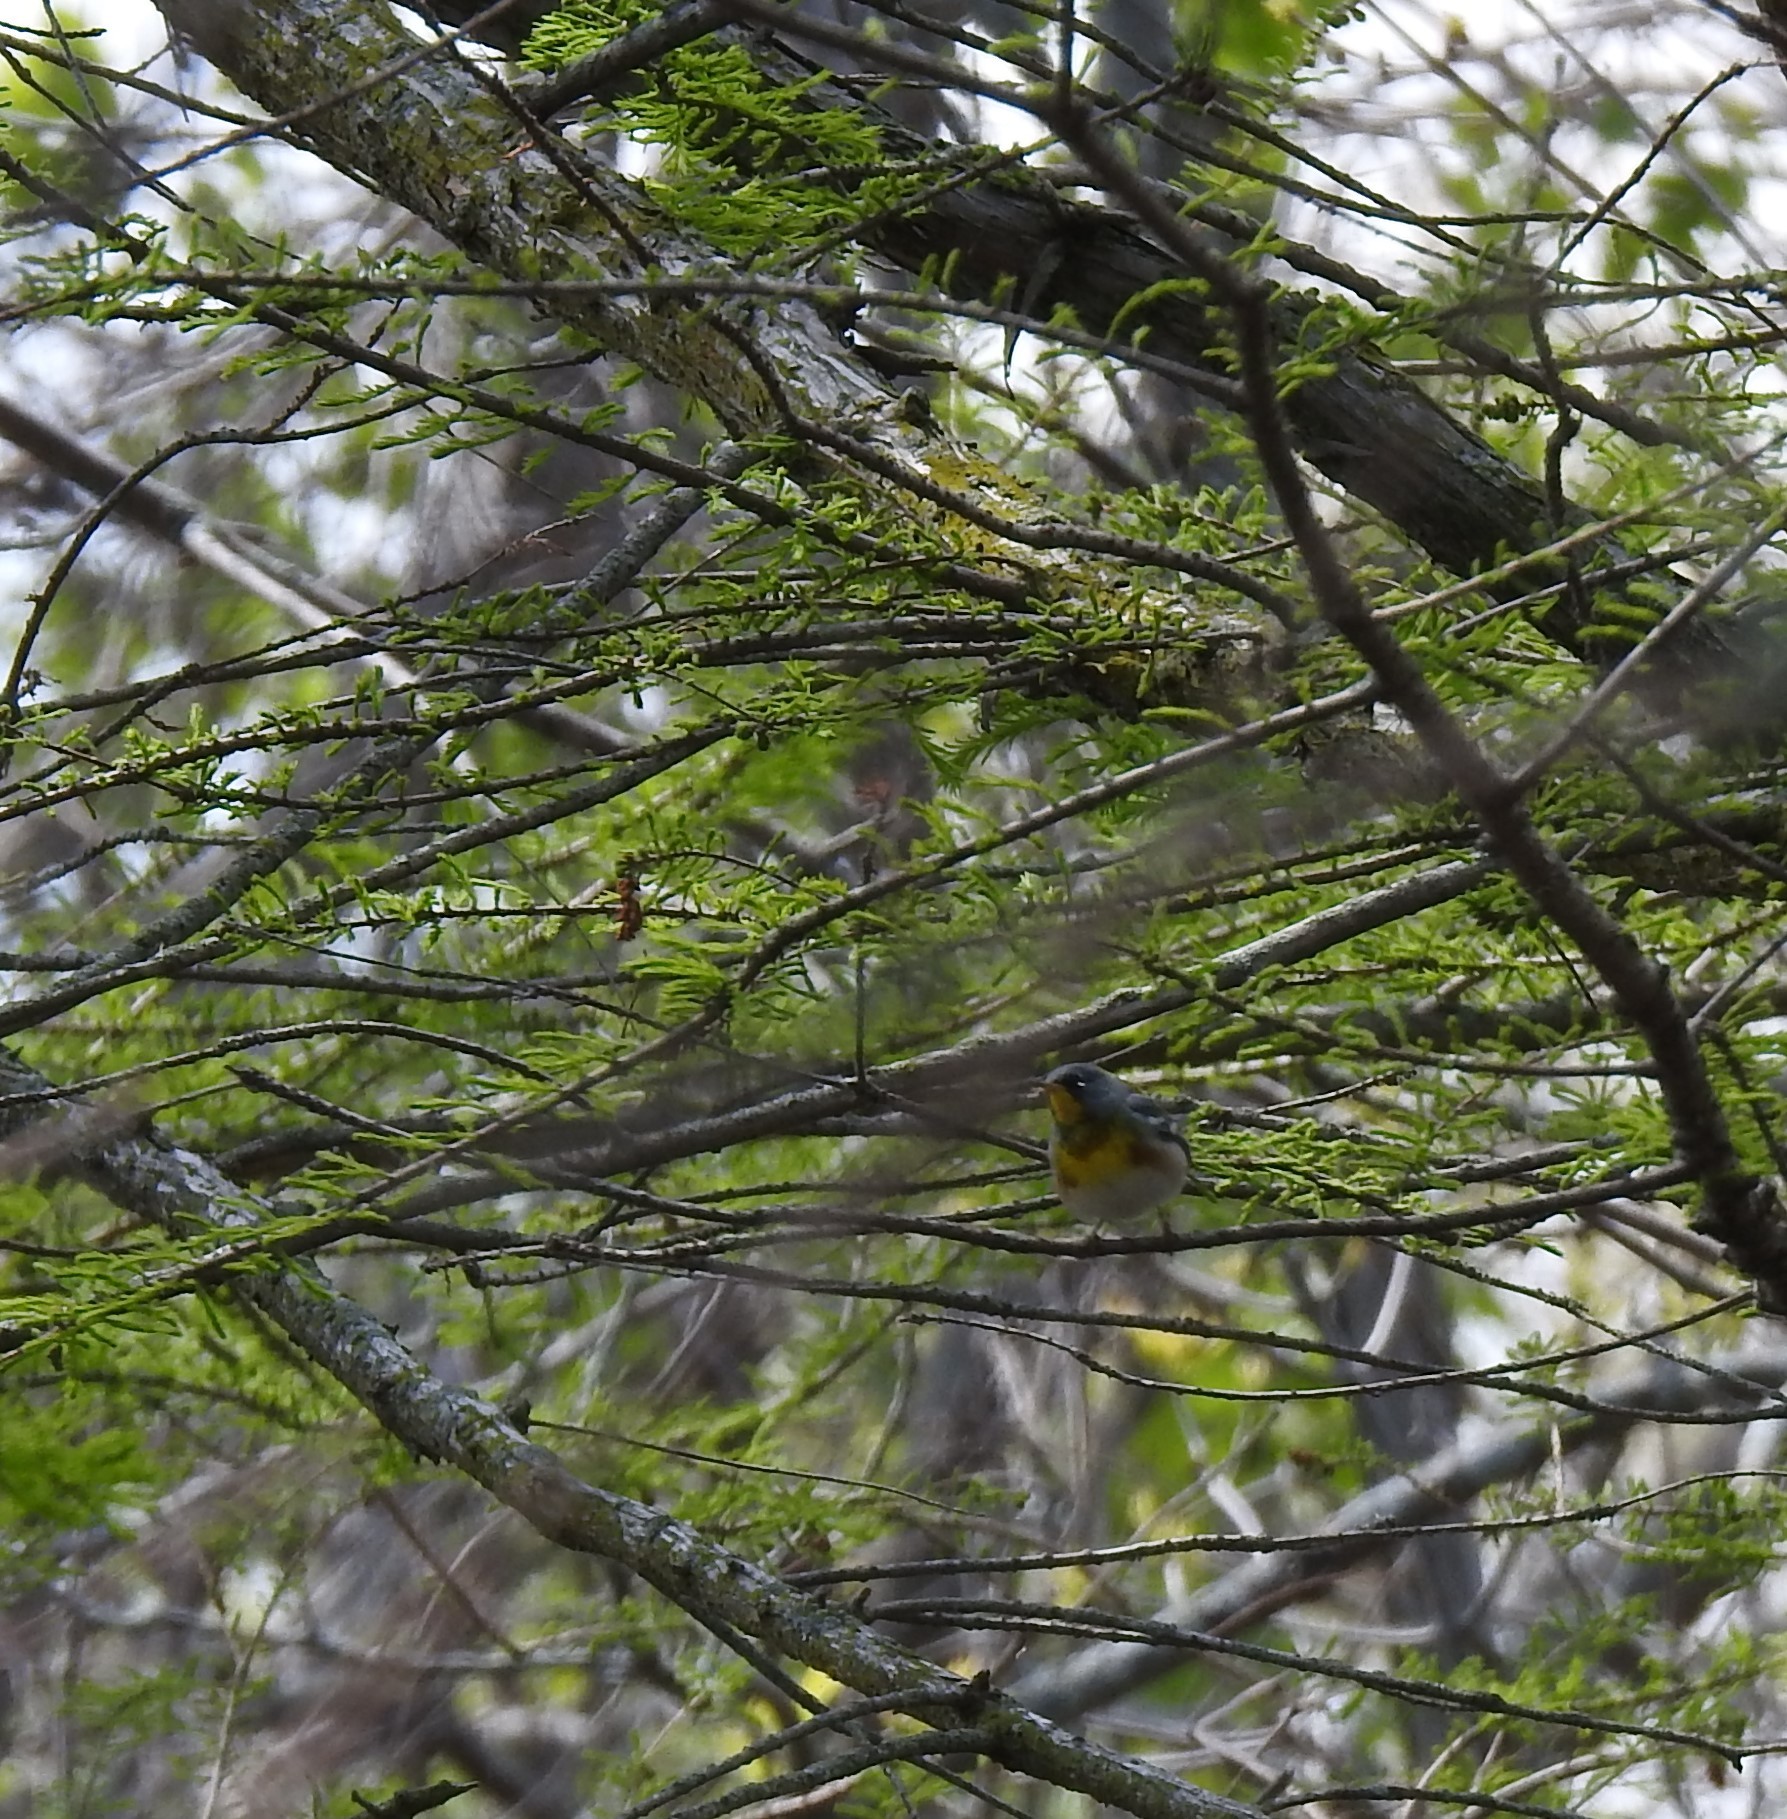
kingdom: Animalia
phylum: Chordata
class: Aves
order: Passeriformes
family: Parulidae
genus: Setophaga
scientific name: Setophaga americana
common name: Northern parula
